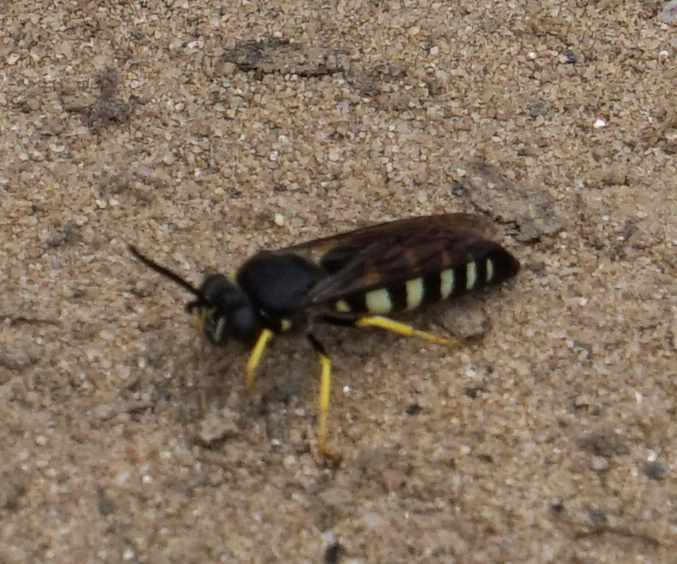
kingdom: Animalia
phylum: Arthropoda
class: Insecta
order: Hymenoptera
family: Crabronidae
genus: Bicyrtes
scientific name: Bicyrtes quadrifasciatus
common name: Four-banded stink bug hunter wasp
